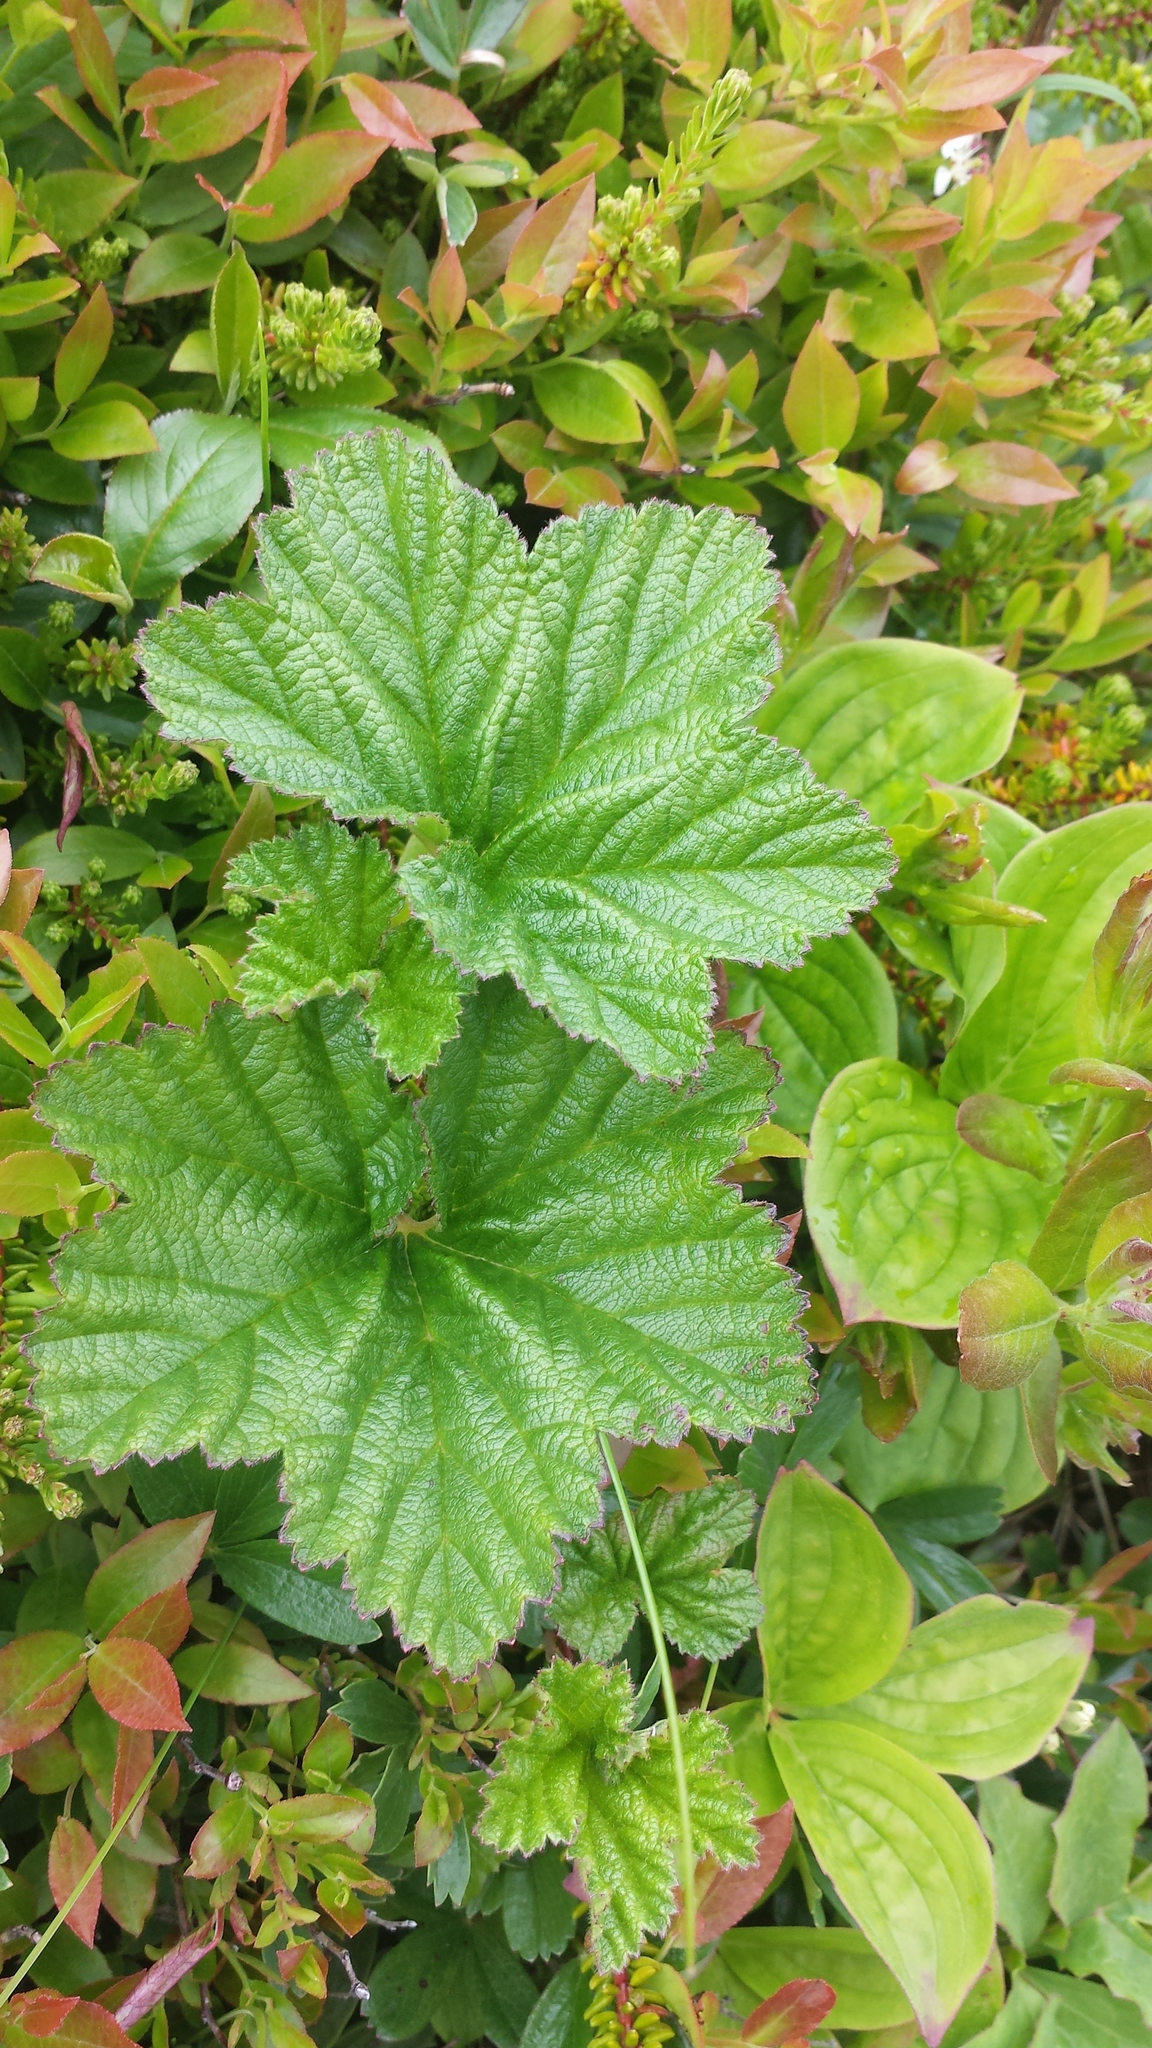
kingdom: Plantae
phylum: Tracheophyta
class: Magnoliopsida
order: Rosales
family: Rosaceae
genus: Rubus
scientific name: Rubus chamaemorus
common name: Cloudberry
